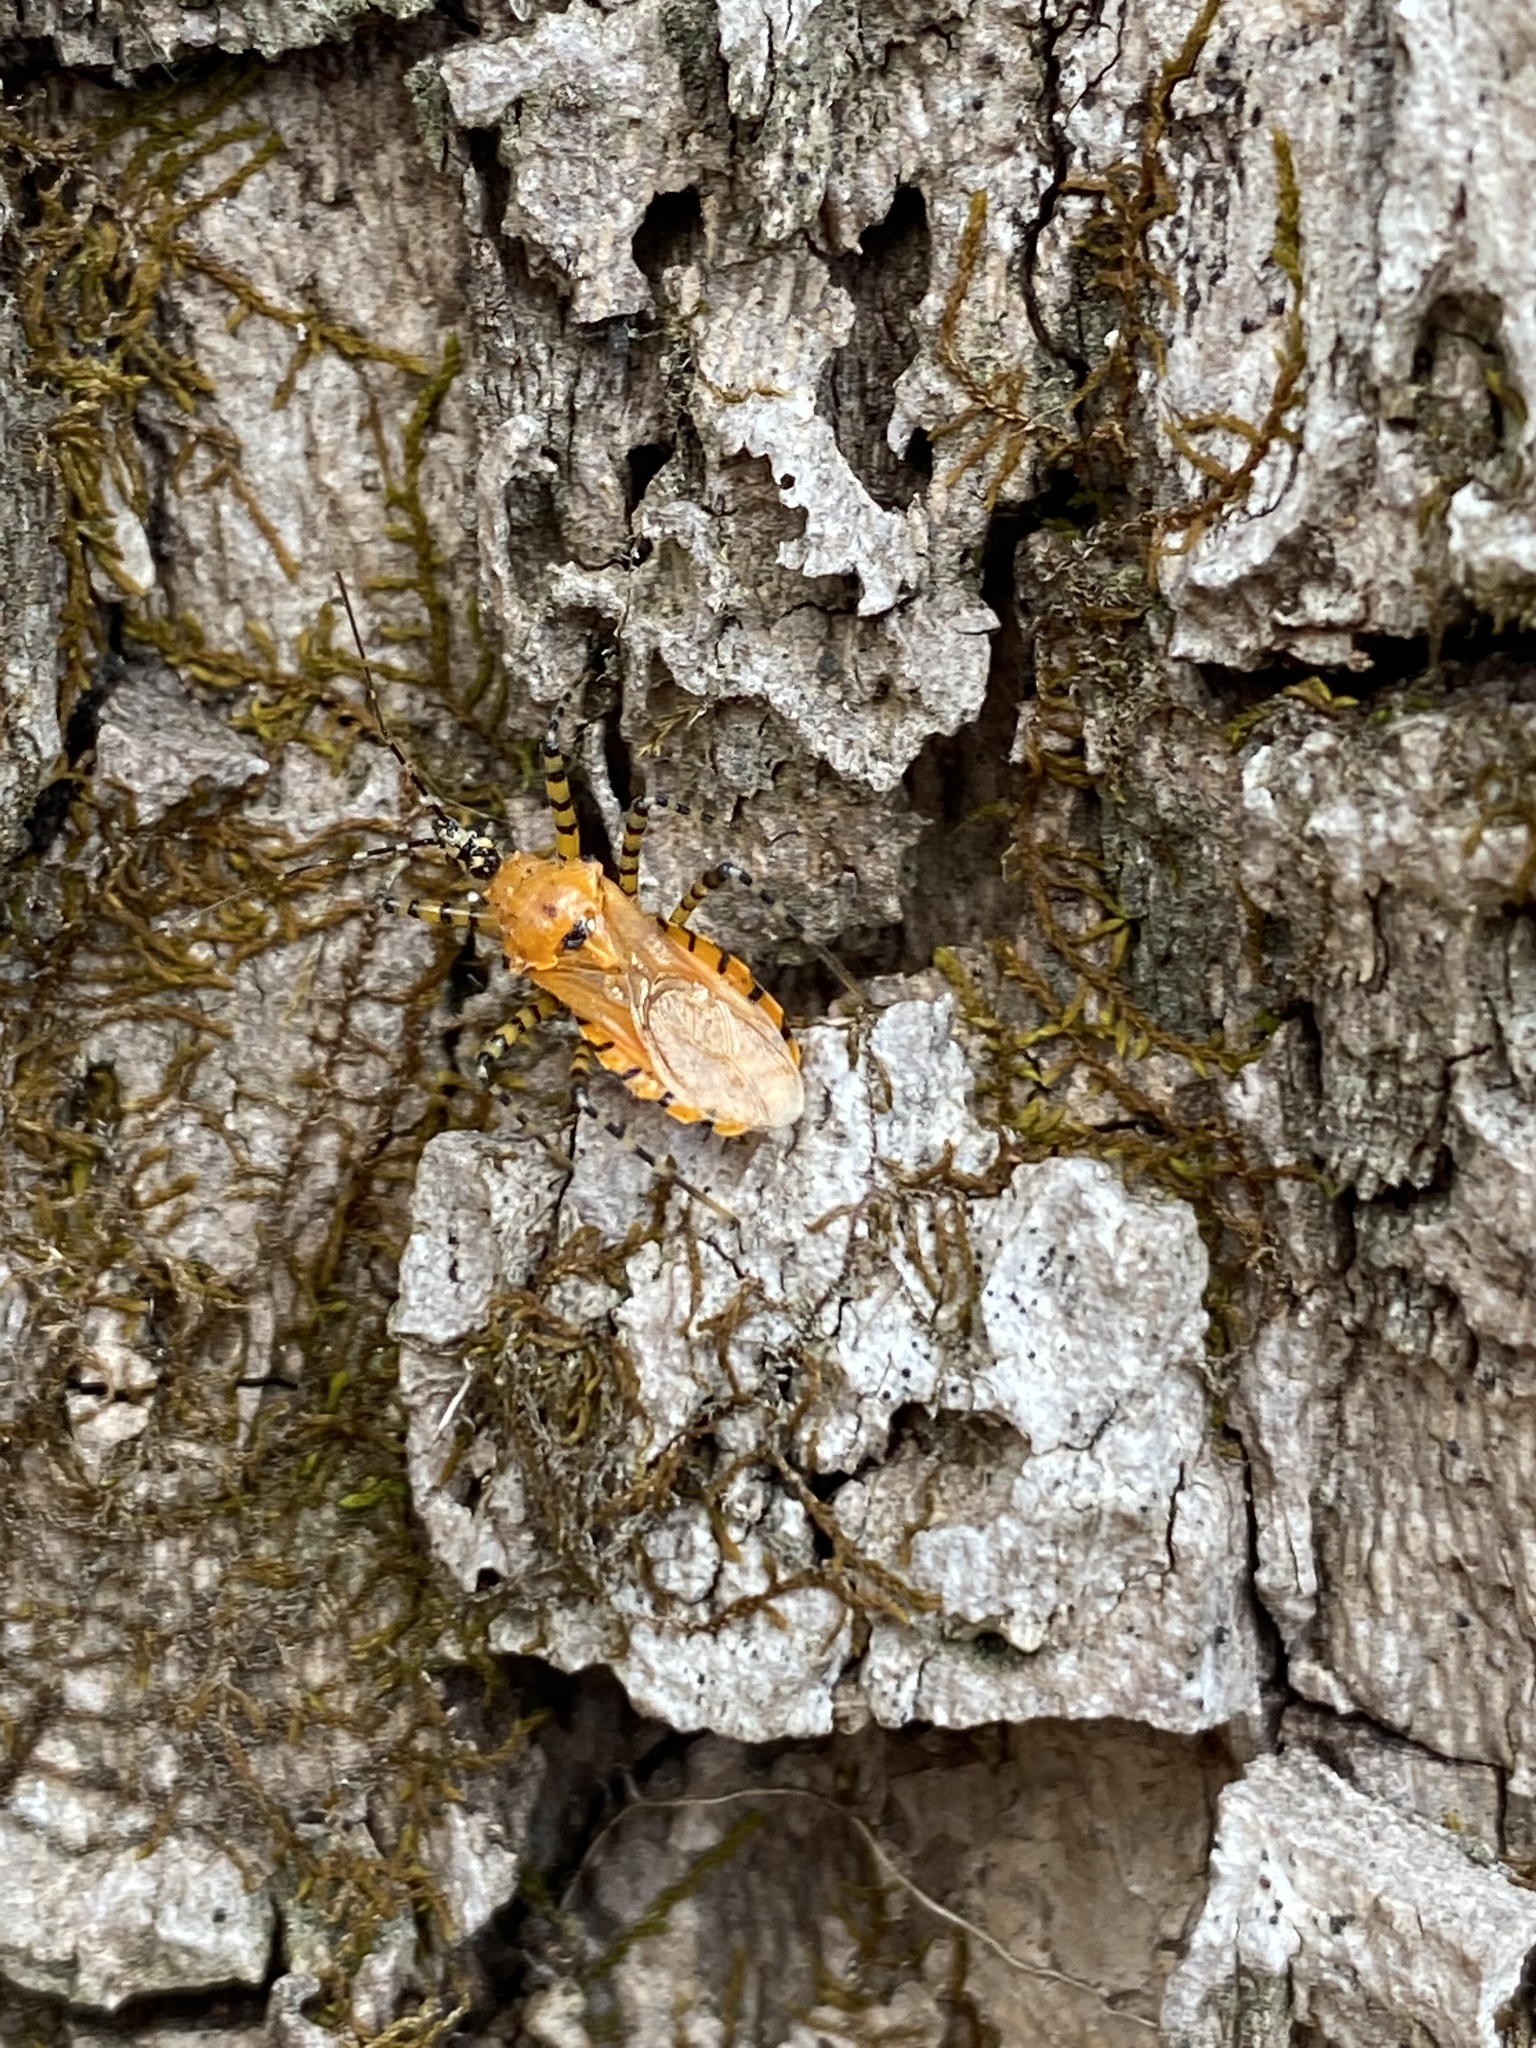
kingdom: Animalia
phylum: Arthropoda
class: Insecta
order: Hemiptera
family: Reduviidae
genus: Pselliopus
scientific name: Pselliopus barberi
